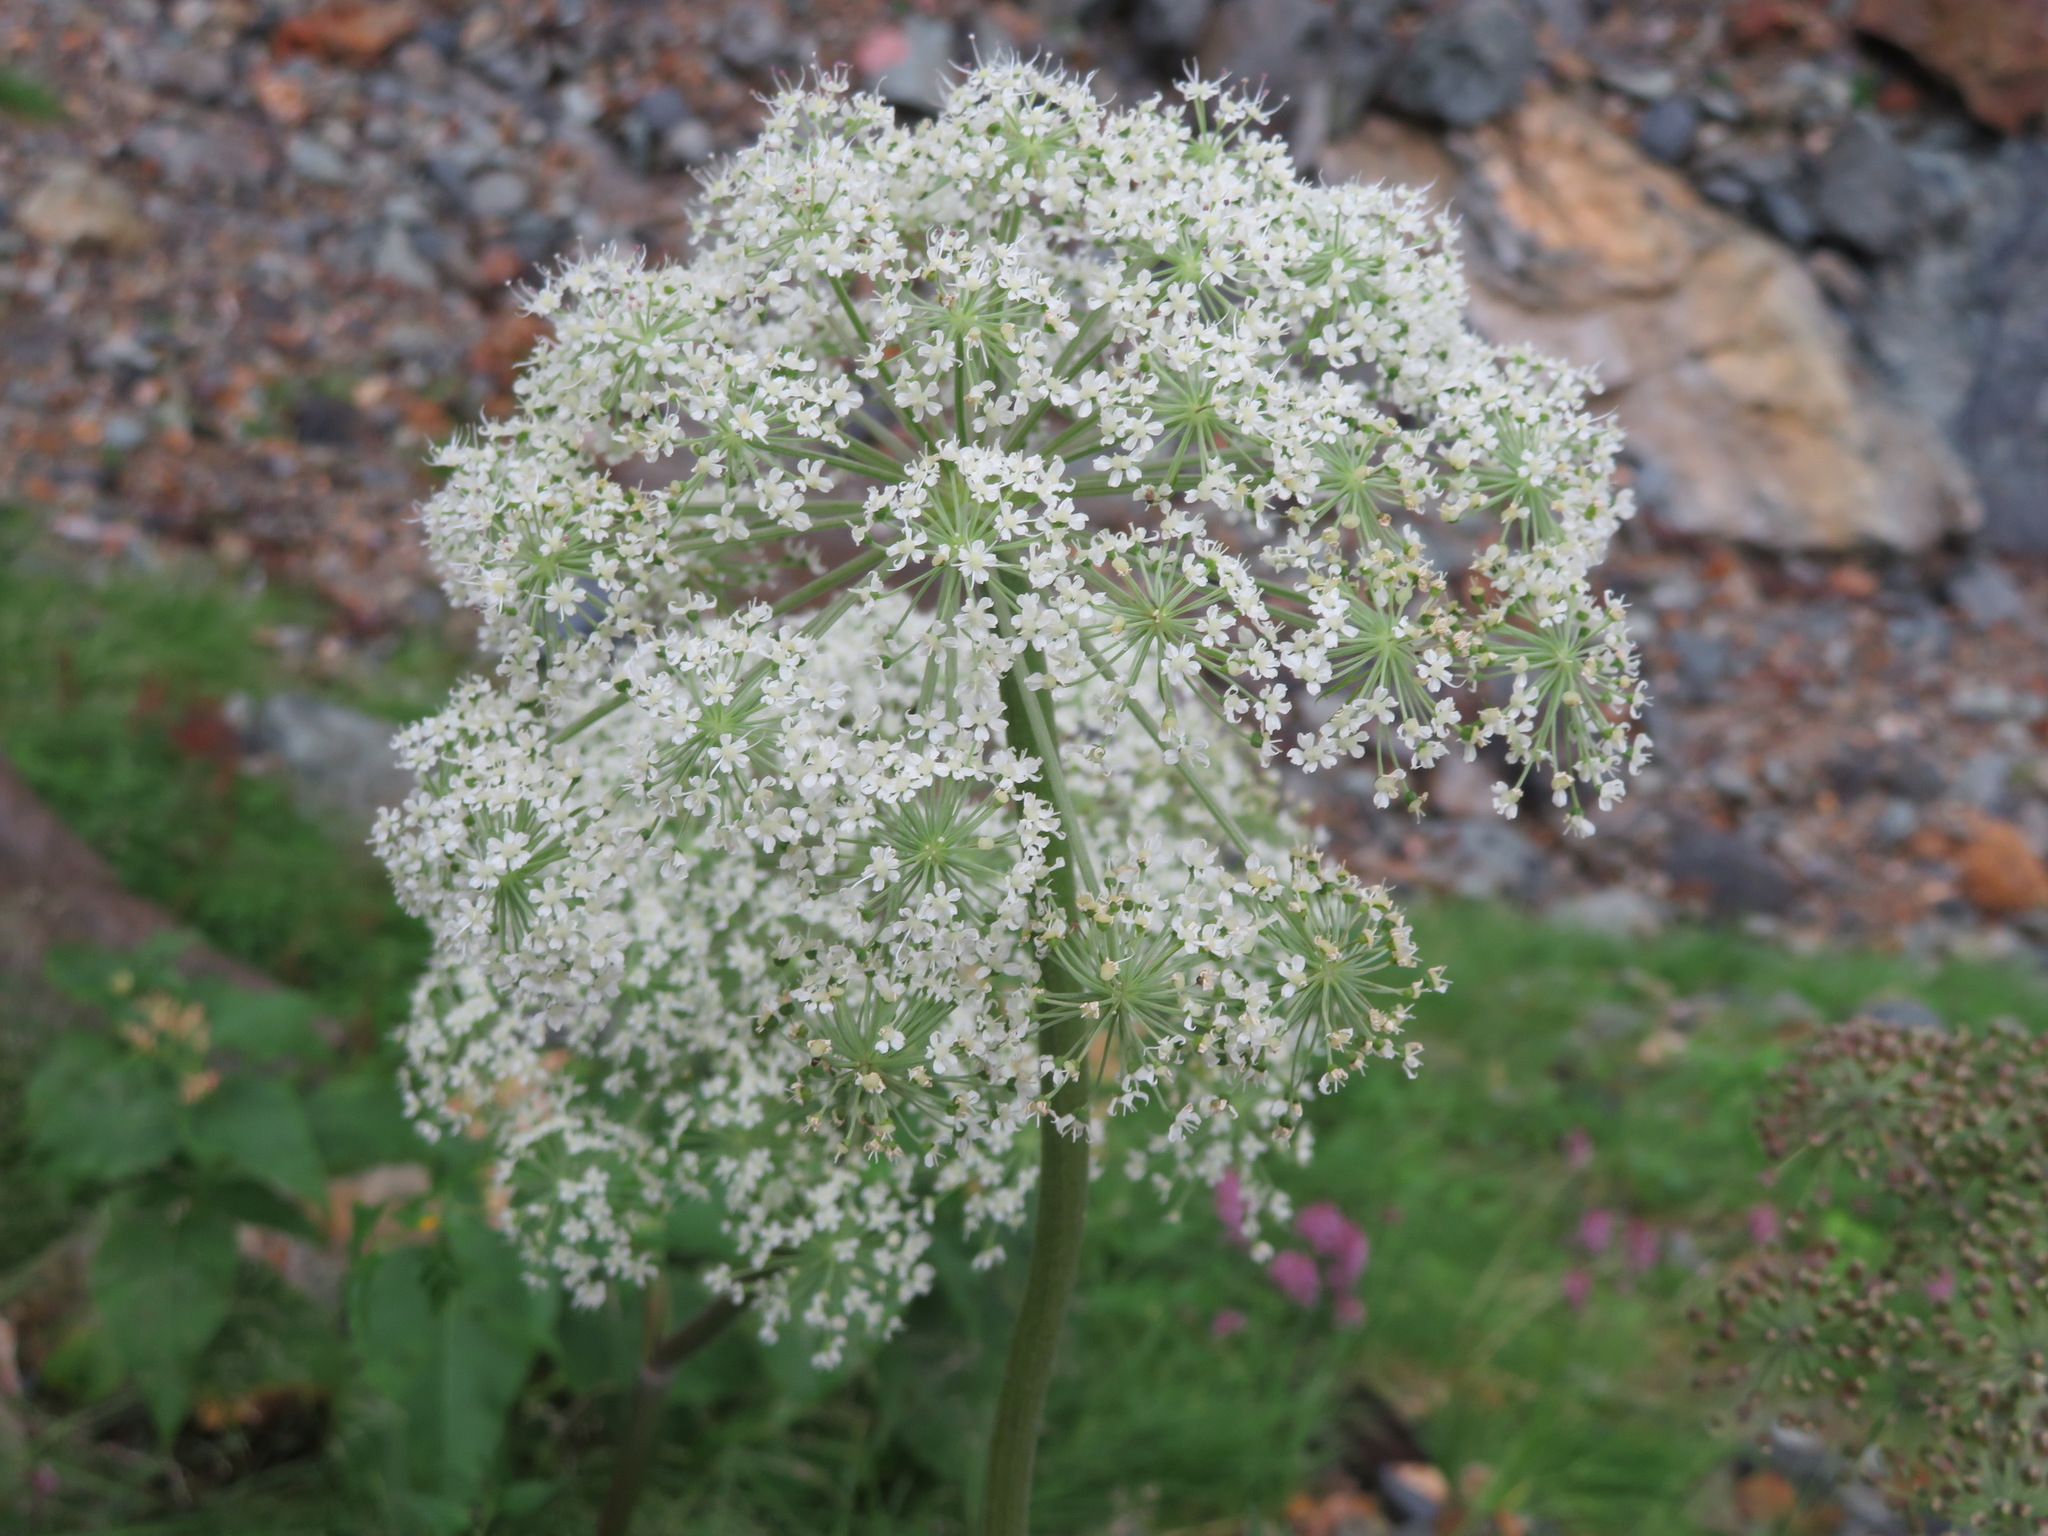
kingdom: Plantae
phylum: Tracheophyta
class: Magnoliopsida
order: Apiales
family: Apiaceae
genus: Angelica
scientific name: Angelica multisecta
